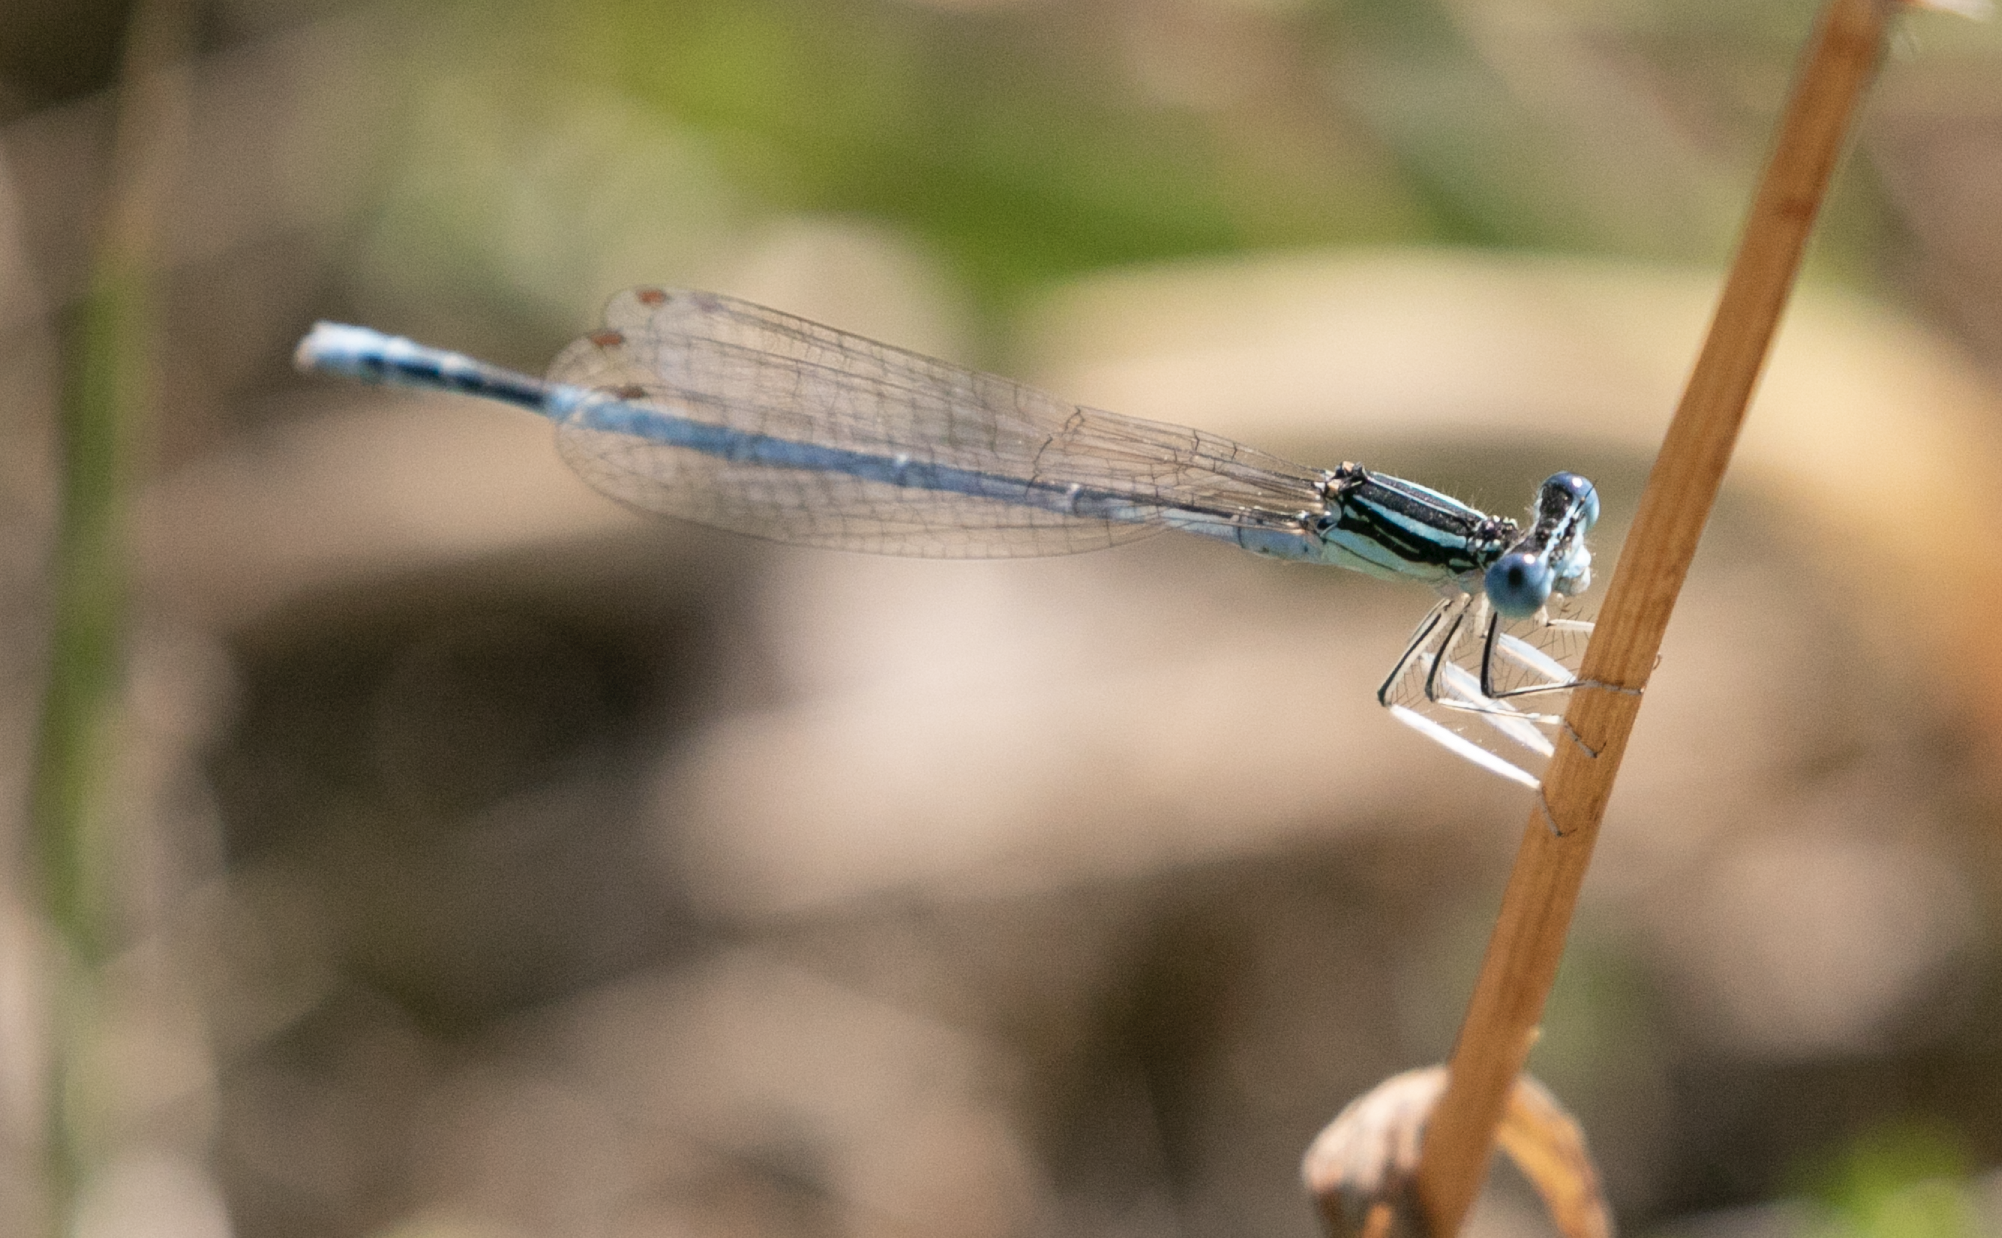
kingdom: Animalia
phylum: Arthropoda
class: Insecta
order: Odonata
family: Platycnemididae
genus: Platycnemis
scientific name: Platycnemis pennipes
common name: White-legged damselfly
